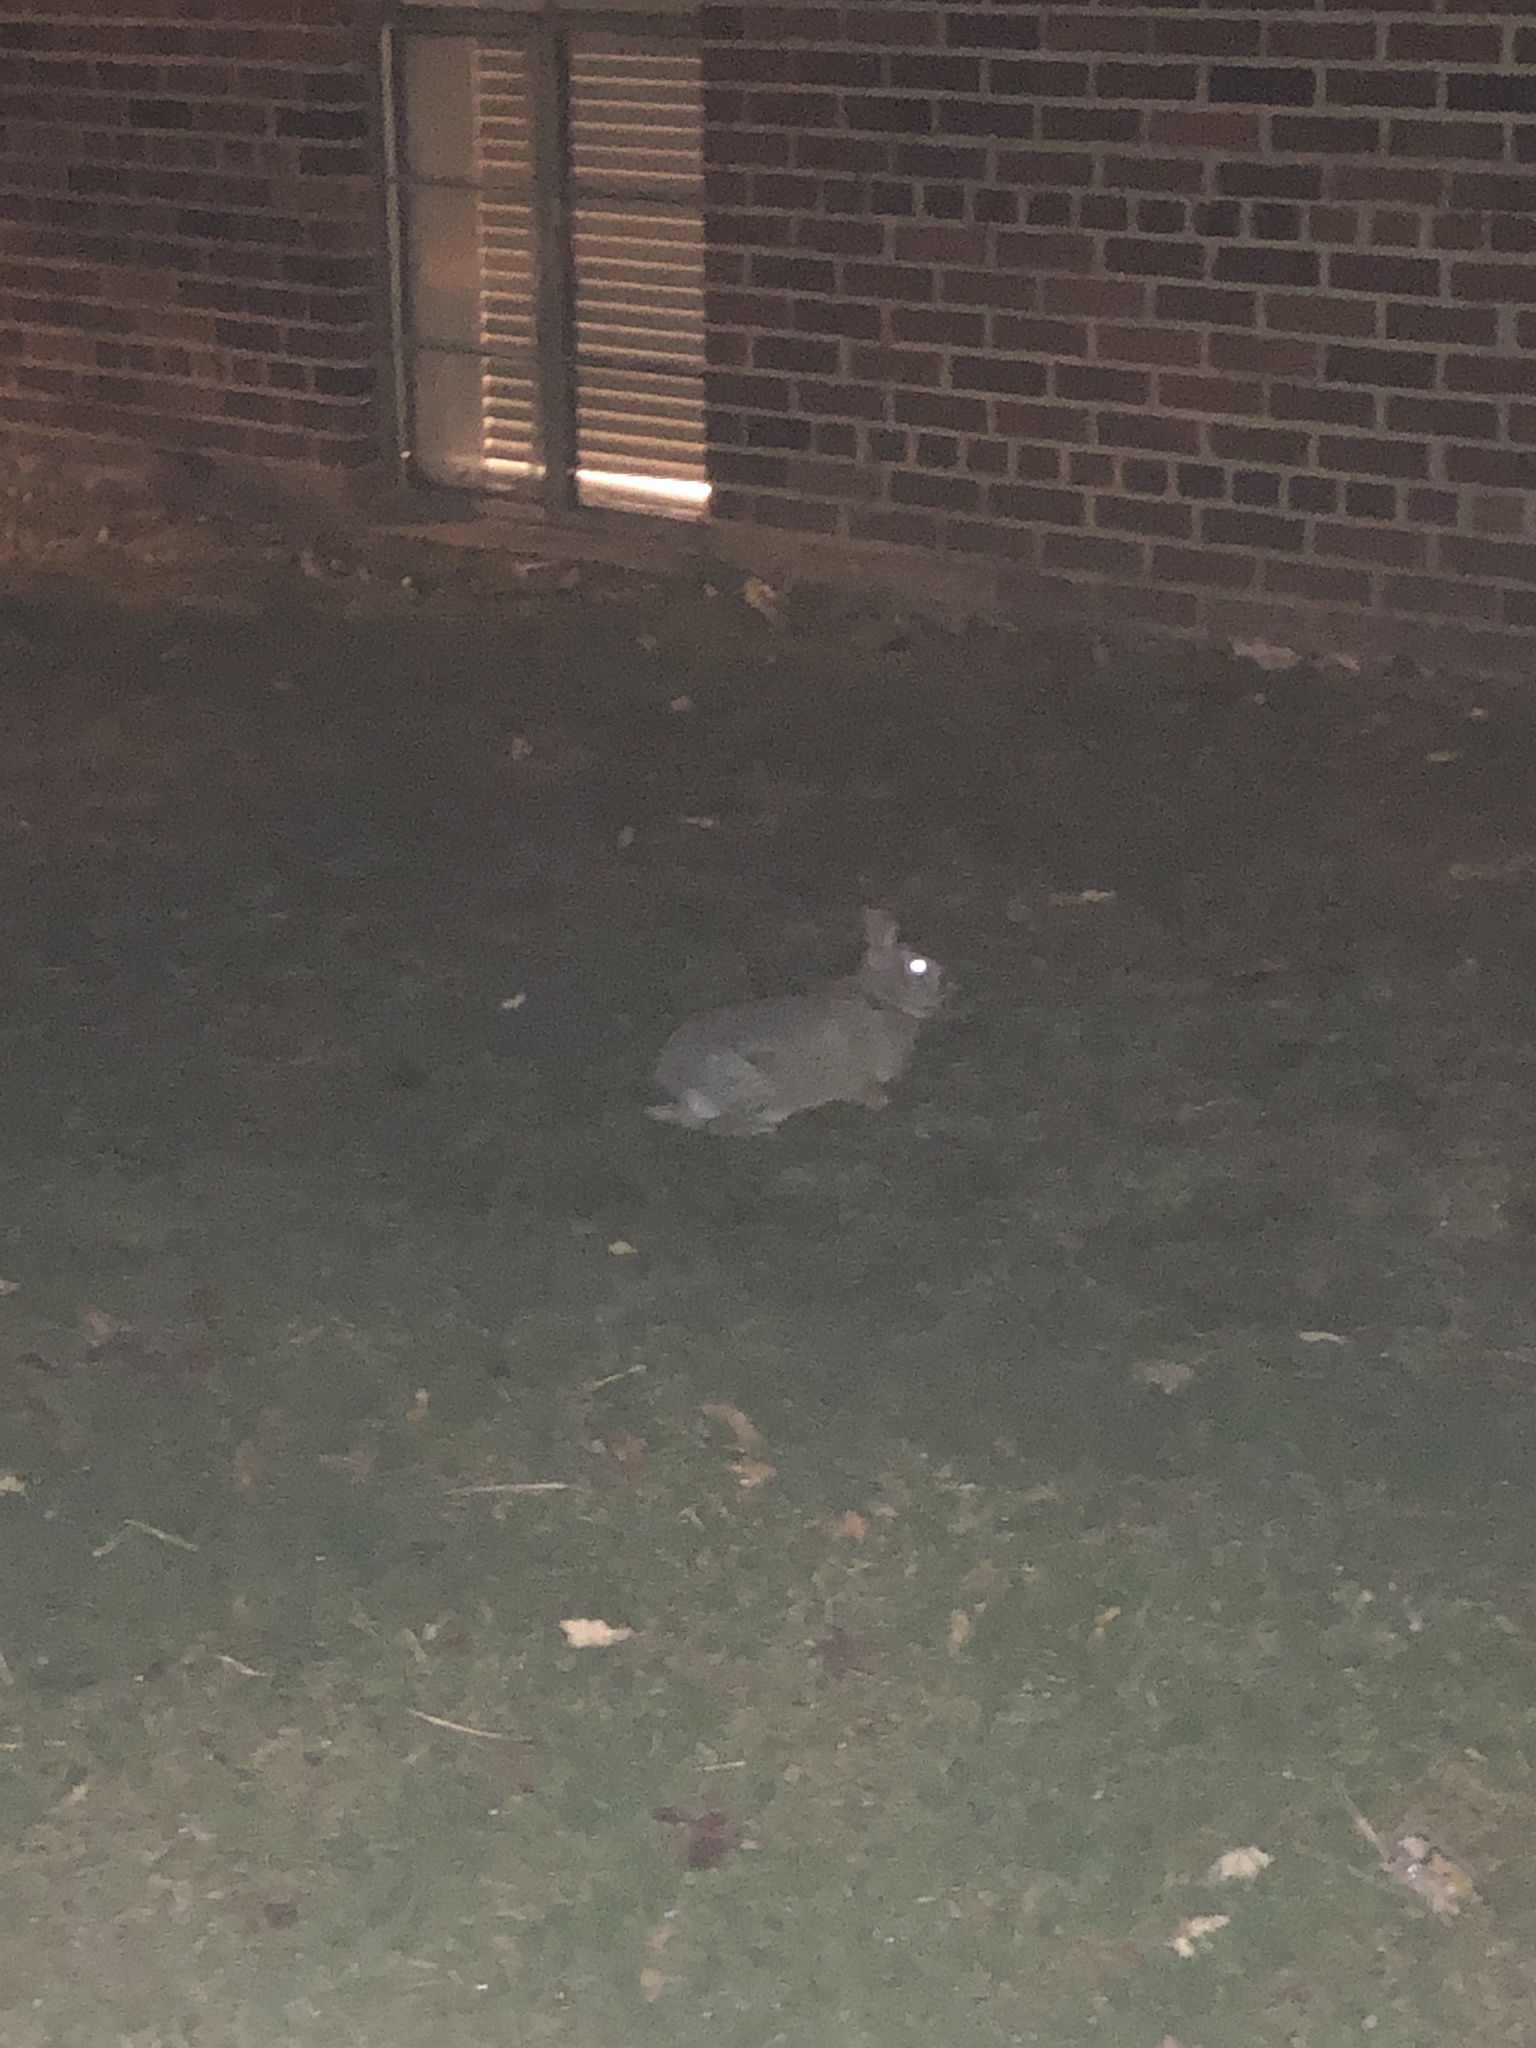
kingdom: Animalia
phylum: Chordata
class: Mammalia
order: Lagomorpha
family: Leporidae
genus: Sylvilagus
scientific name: Sylvilagus floridanus
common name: Eastern cottontail
